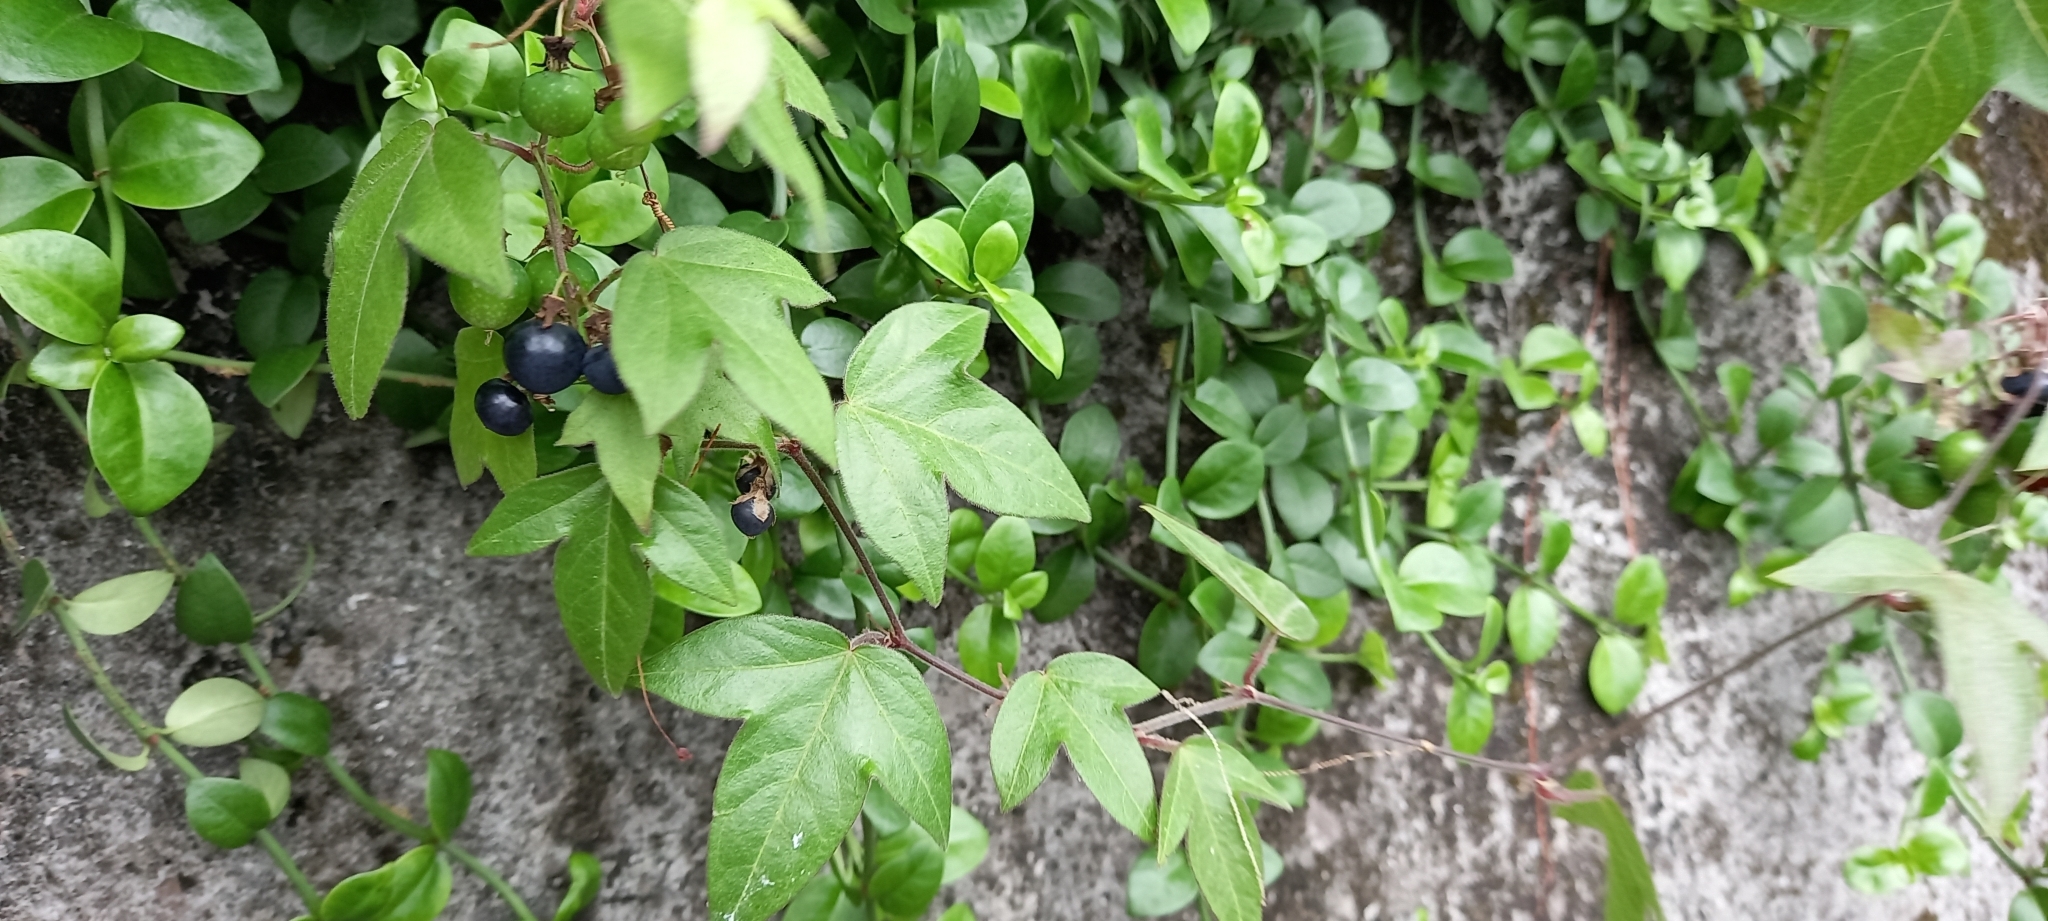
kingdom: Plantae
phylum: Tracheophyta
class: Magnoliopsida
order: Malpighiales
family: Passifloraceae
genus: Passiflora
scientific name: Passiflora suberosa
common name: Wild passionfruit
